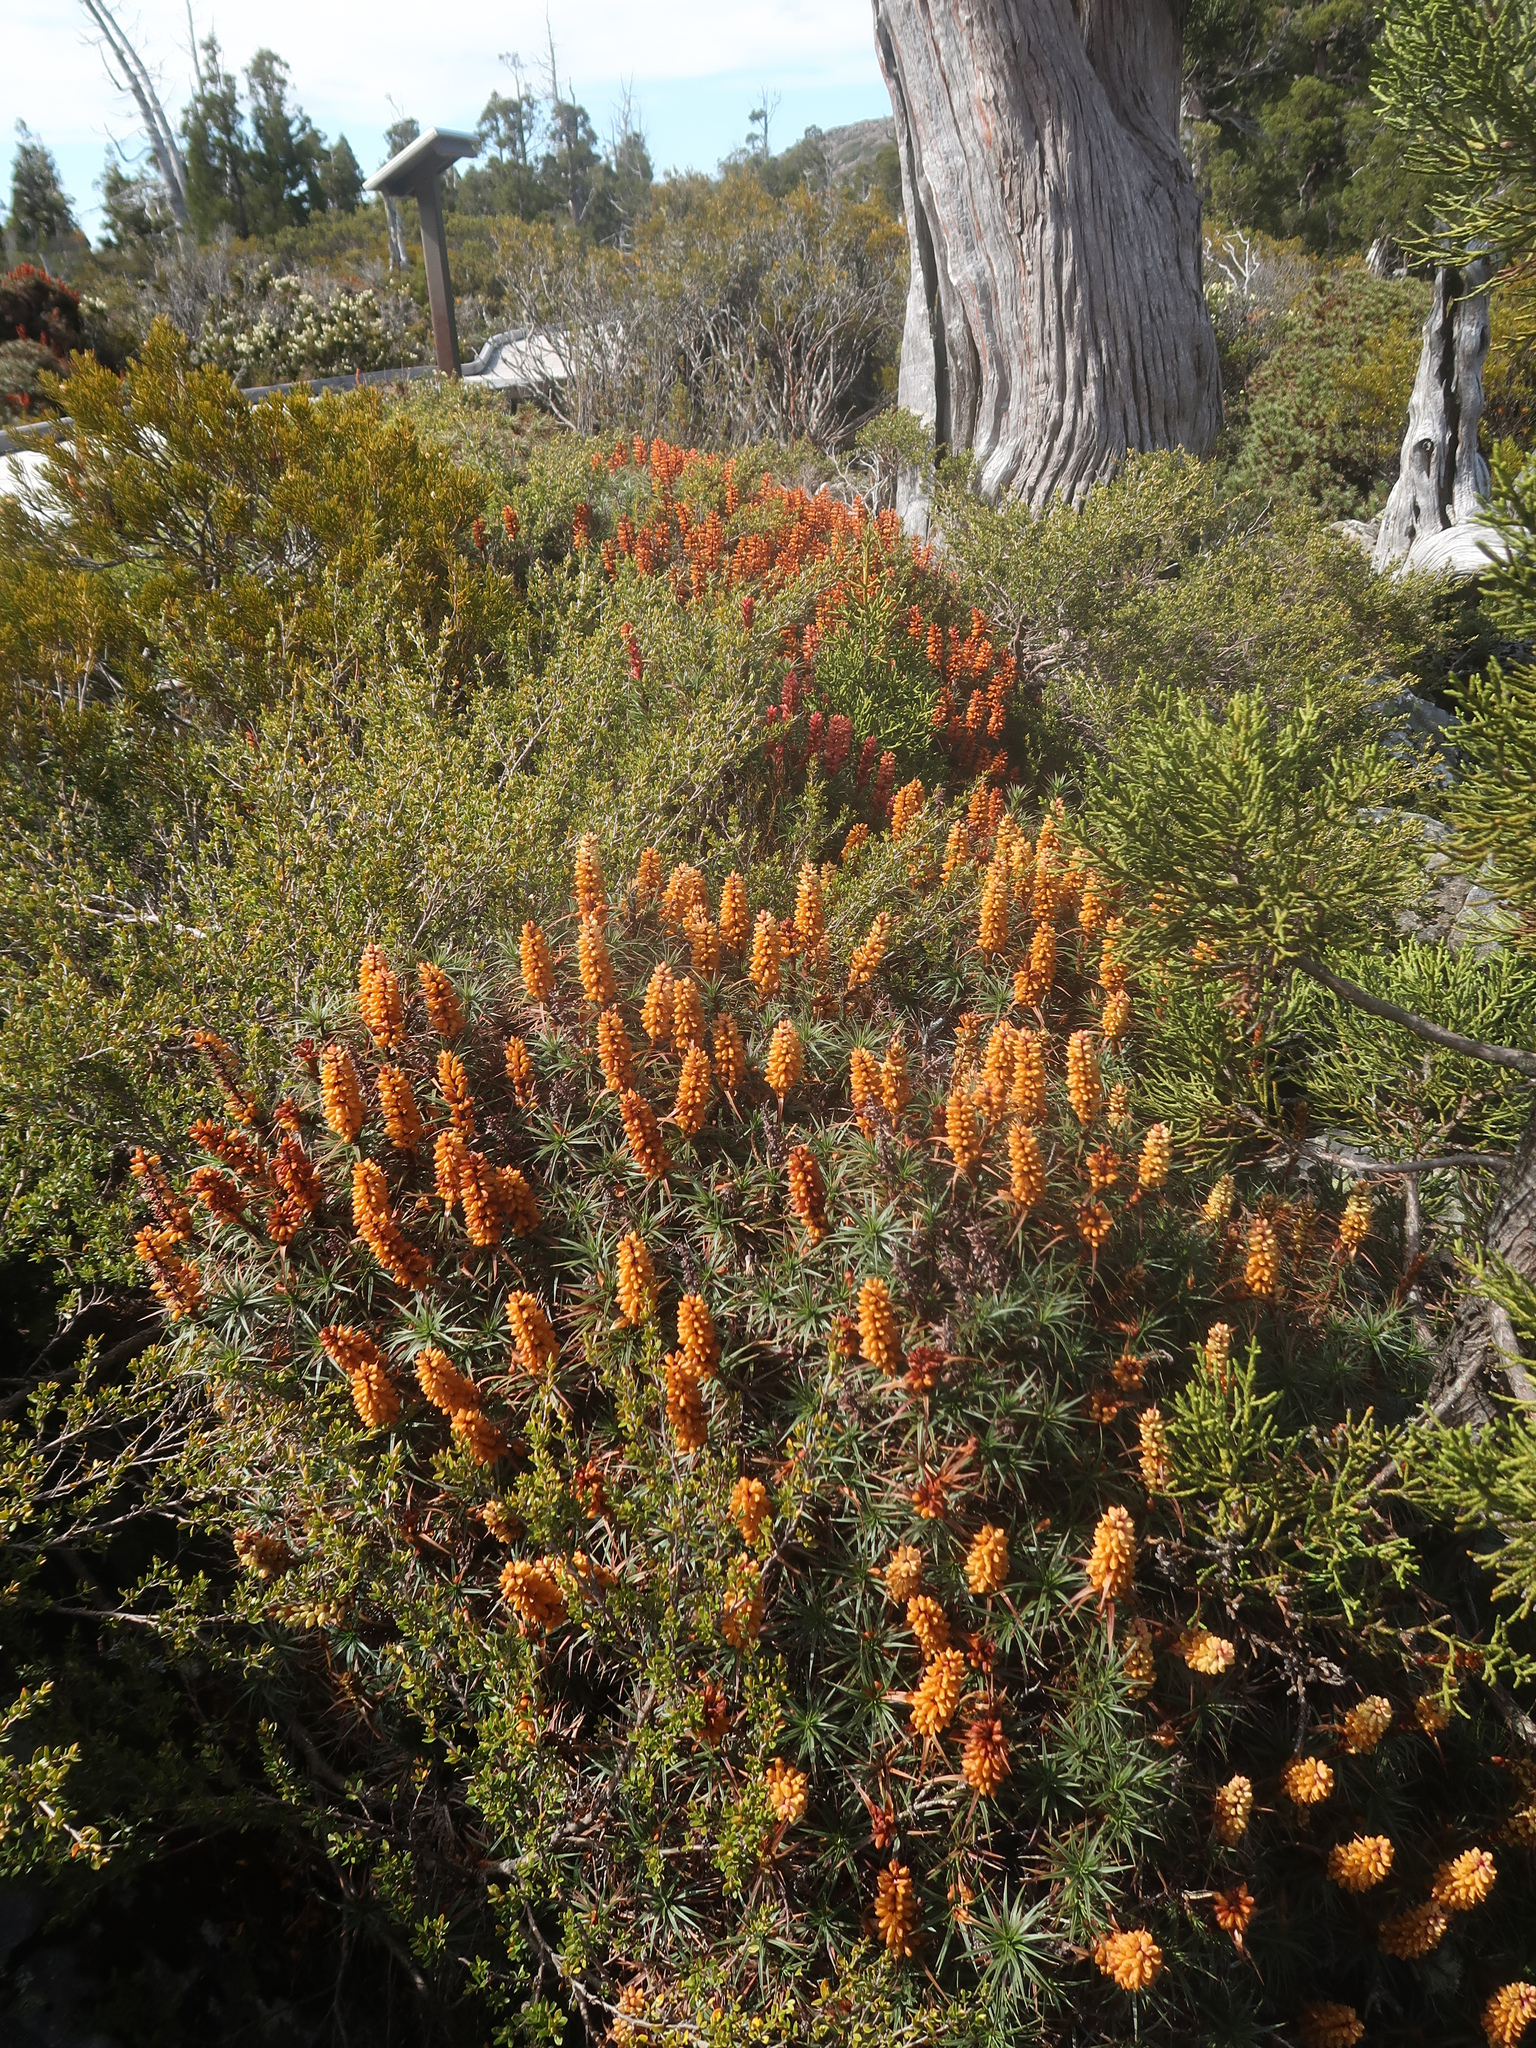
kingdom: Plantae
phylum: Tracheophyta
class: Magnoliopsida
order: Ericales
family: Ericaceae
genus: Dracophyllum
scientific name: Dracophyllum persistentifolium
